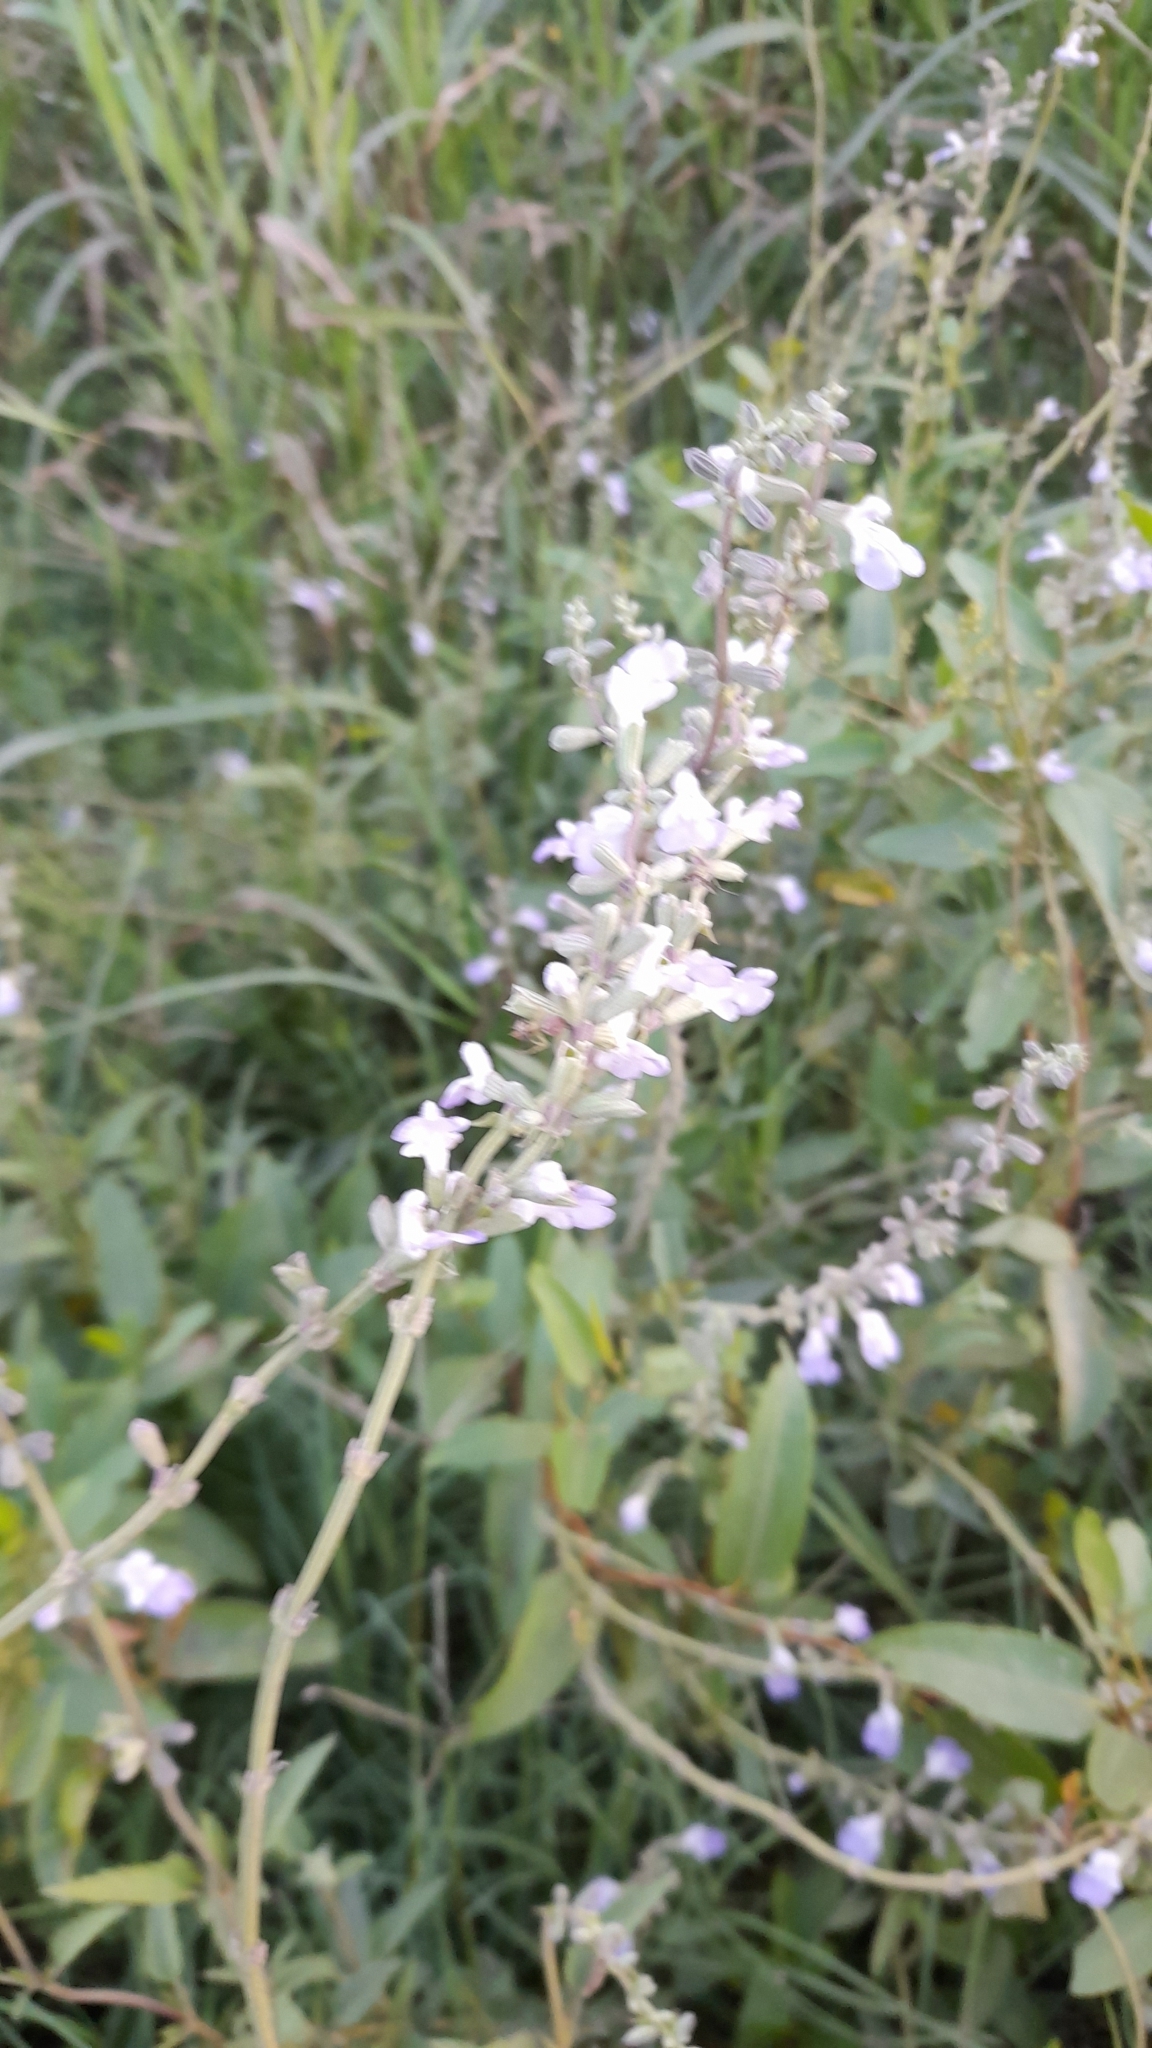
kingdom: Plantae
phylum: Tracheophyta
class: Magnoliopsida
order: Lamiales
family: Lamiaceae
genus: Salvia
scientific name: Salvia pallida
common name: Pale sage
